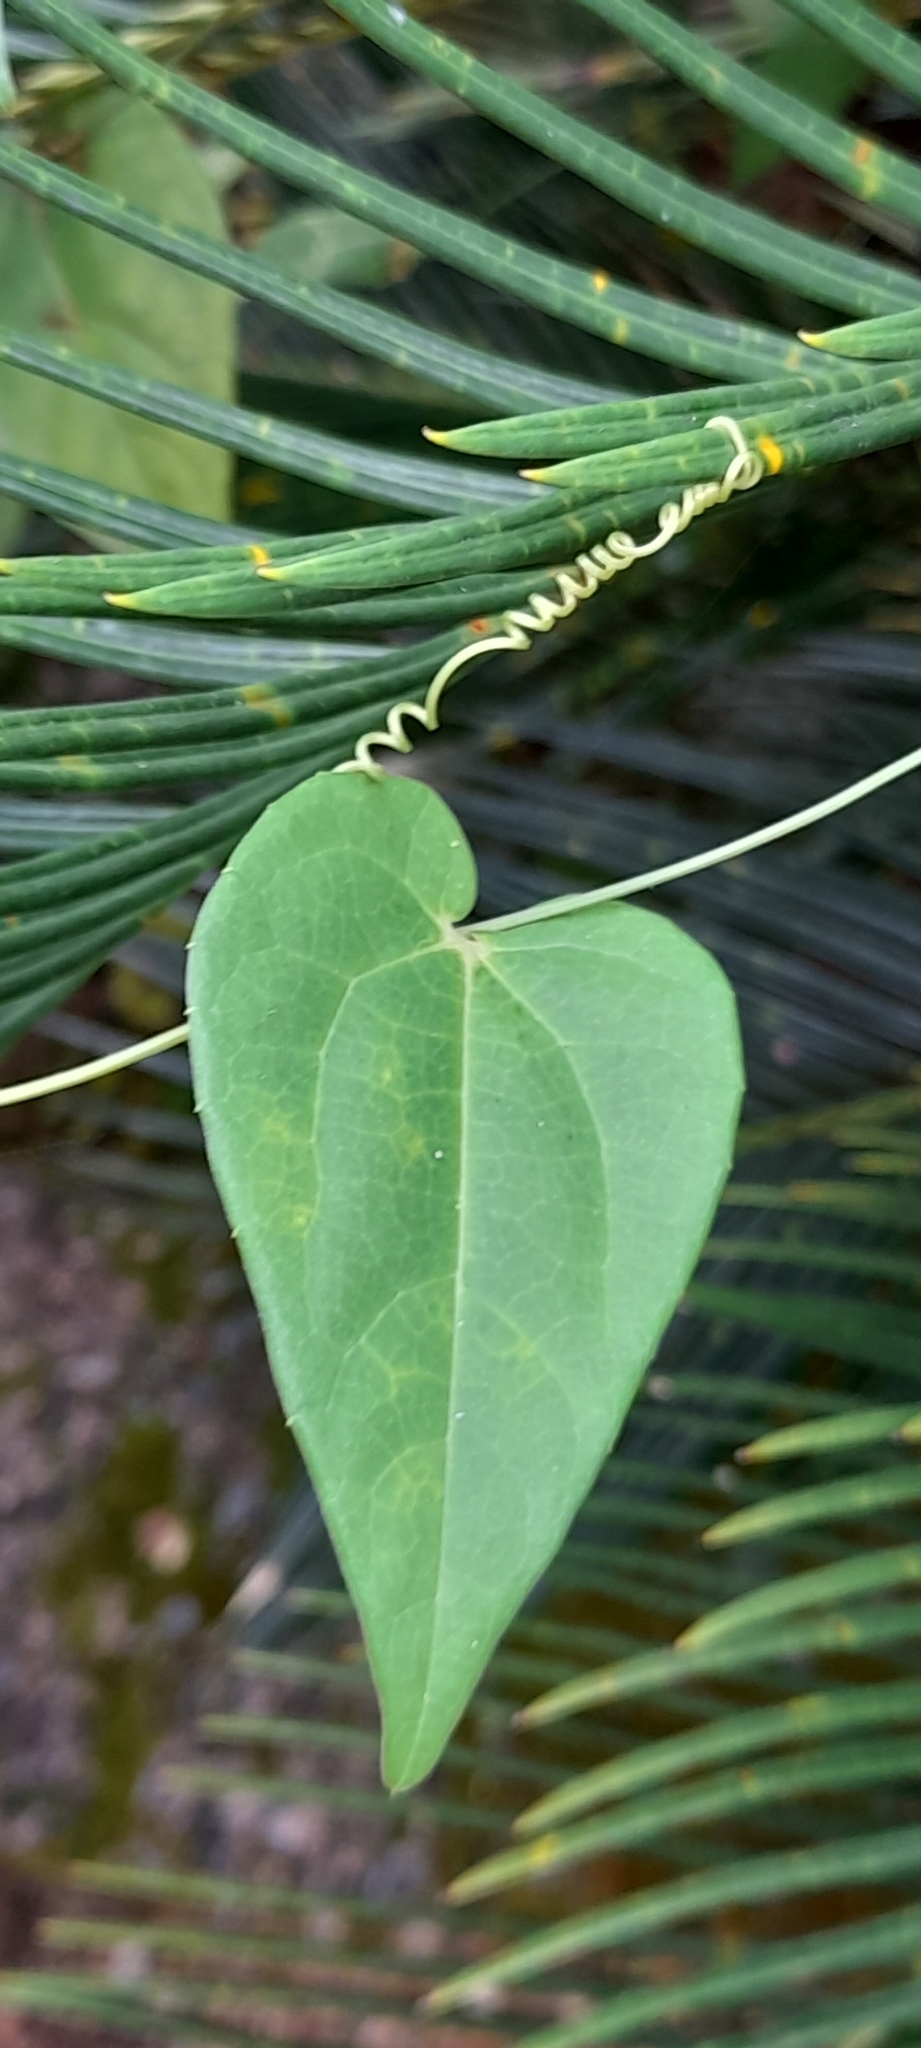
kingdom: Plantae
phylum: Tracheophyta
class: Magnoliopsida
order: Cucurbitales
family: Cucurbitaceae
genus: Solena
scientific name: Solena amplexicaulis
